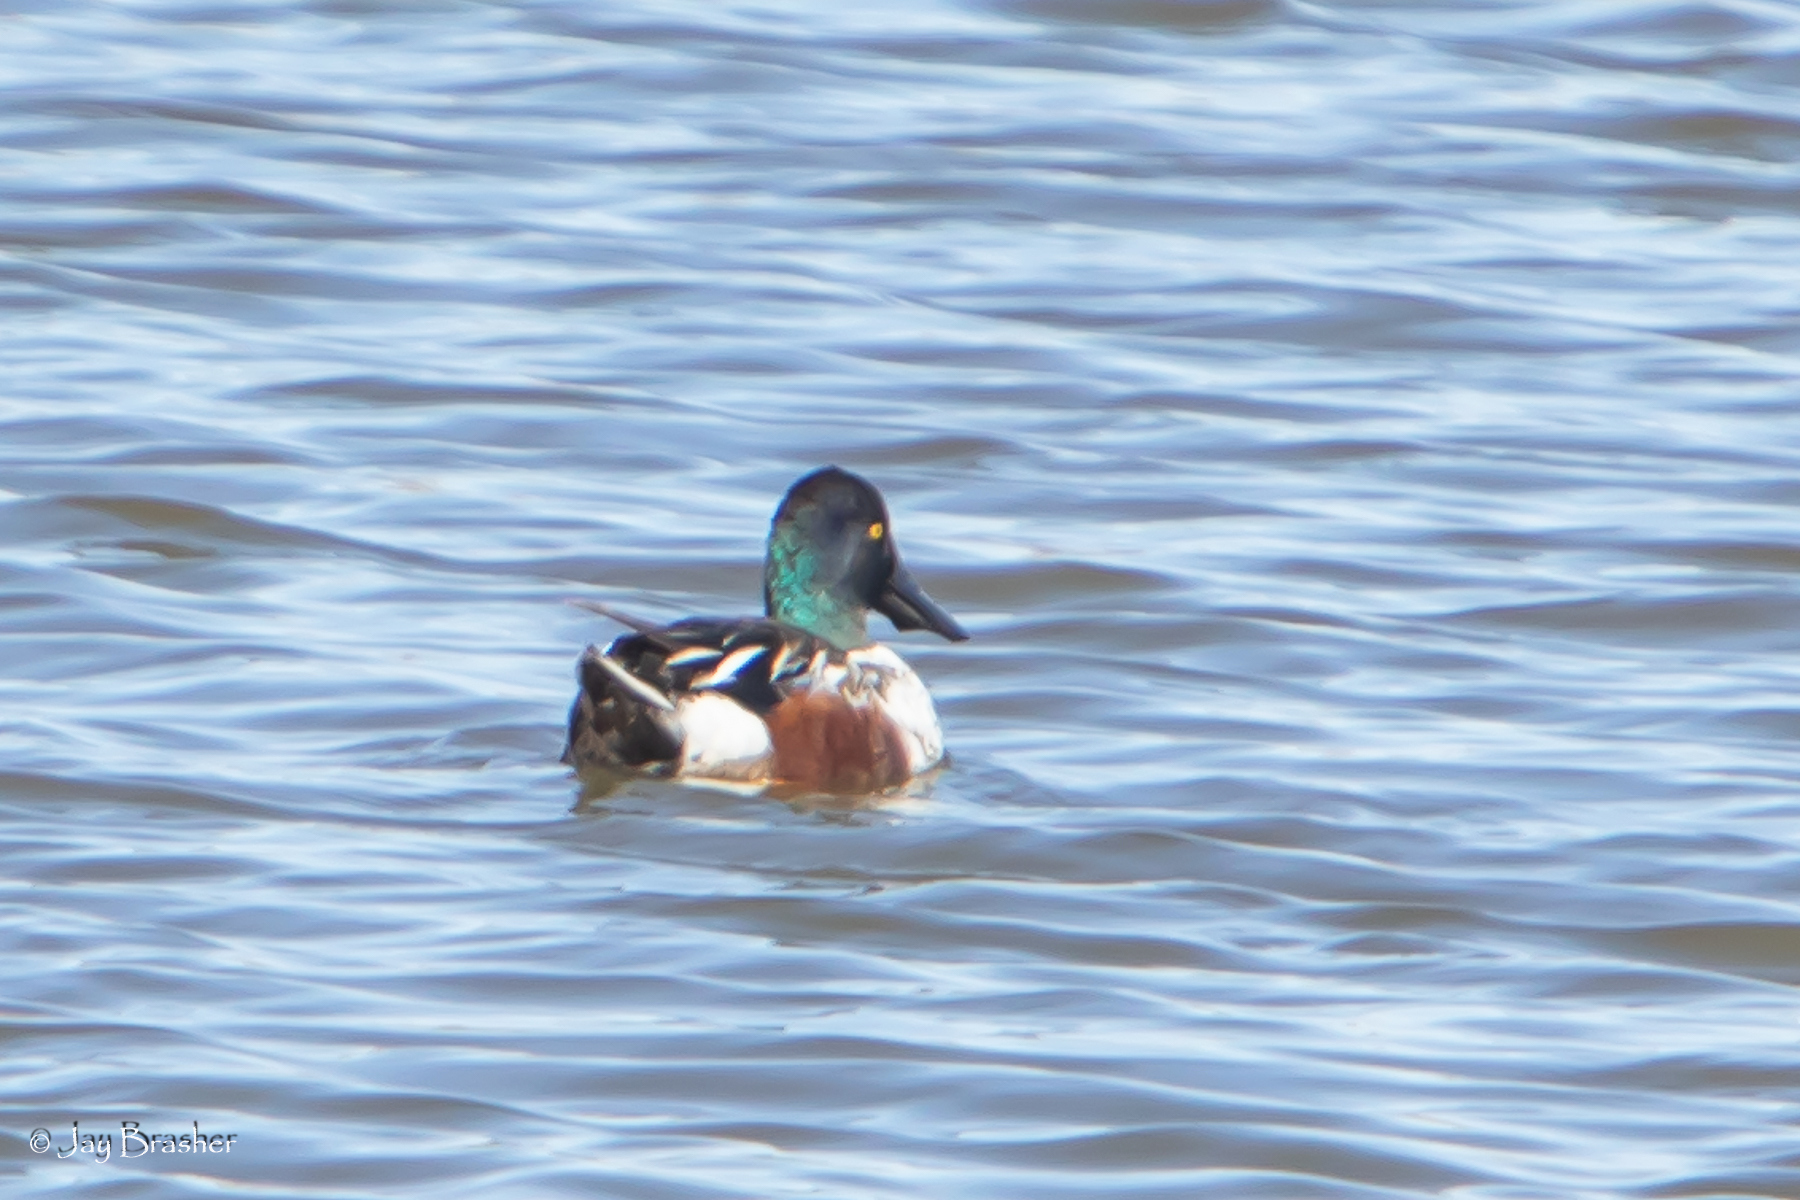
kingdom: Animalia
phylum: Chordata
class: Aves
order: Anseriformes
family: Anatidae
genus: Spatula
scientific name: Spatula clypeata
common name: Northern shoveler
